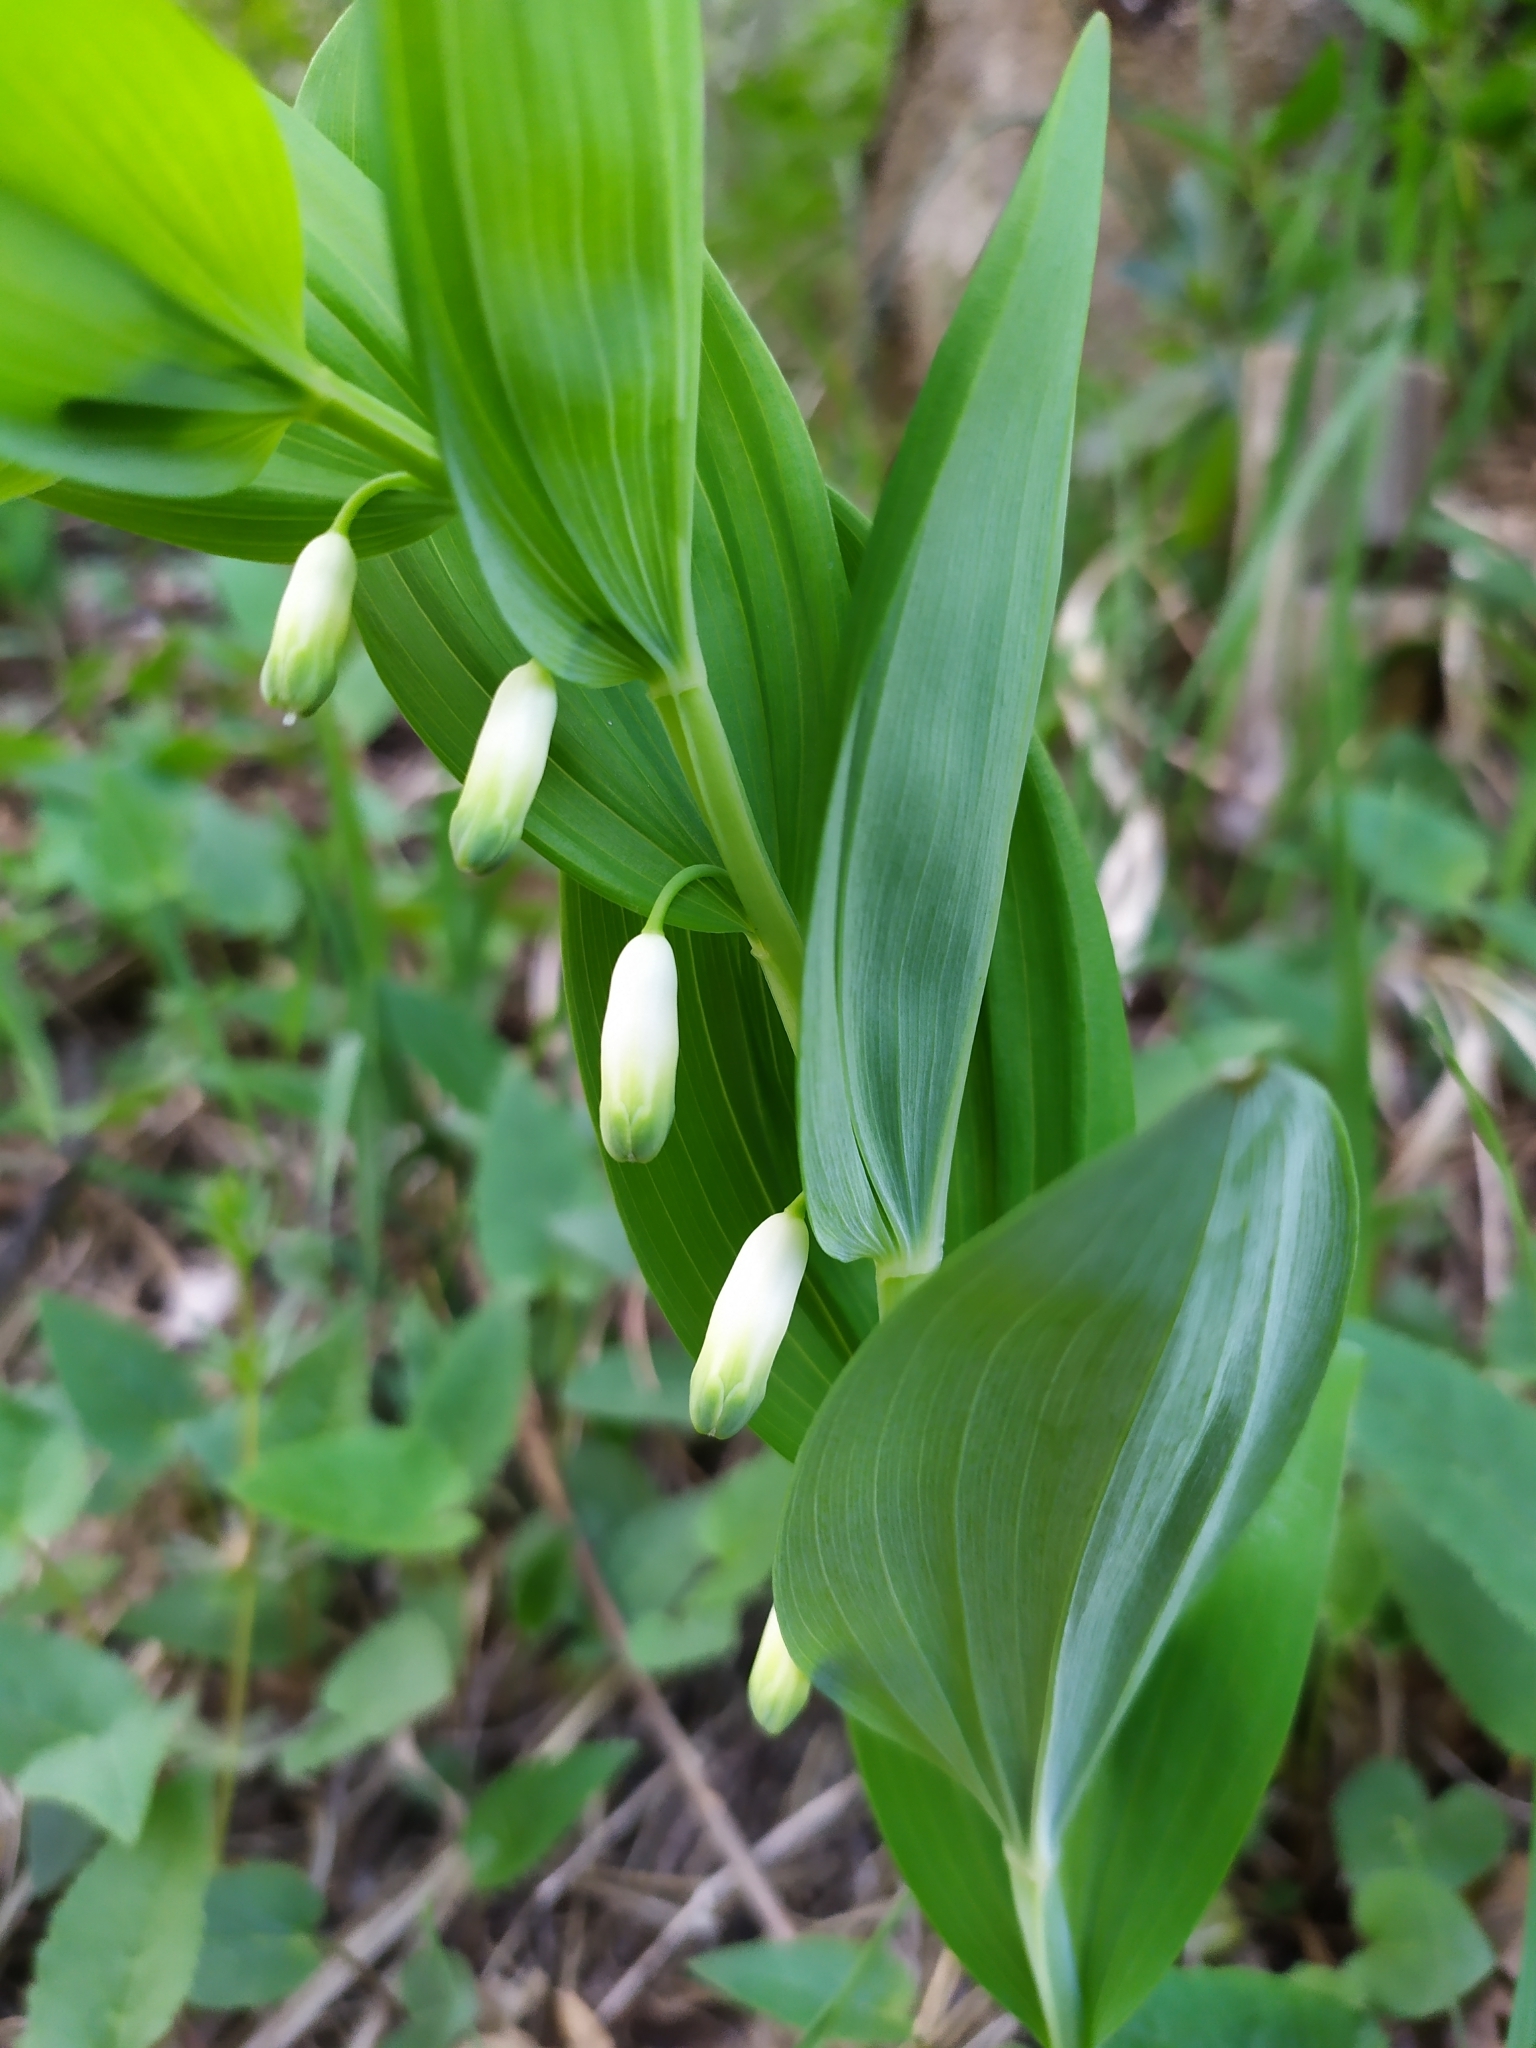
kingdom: Plantae
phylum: Tracheophyta
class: Liliopsida
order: Asparagales
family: Asparagaceae
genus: Polygonatum
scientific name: Polygonatum odoratum
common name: Angular solomon's-seal
